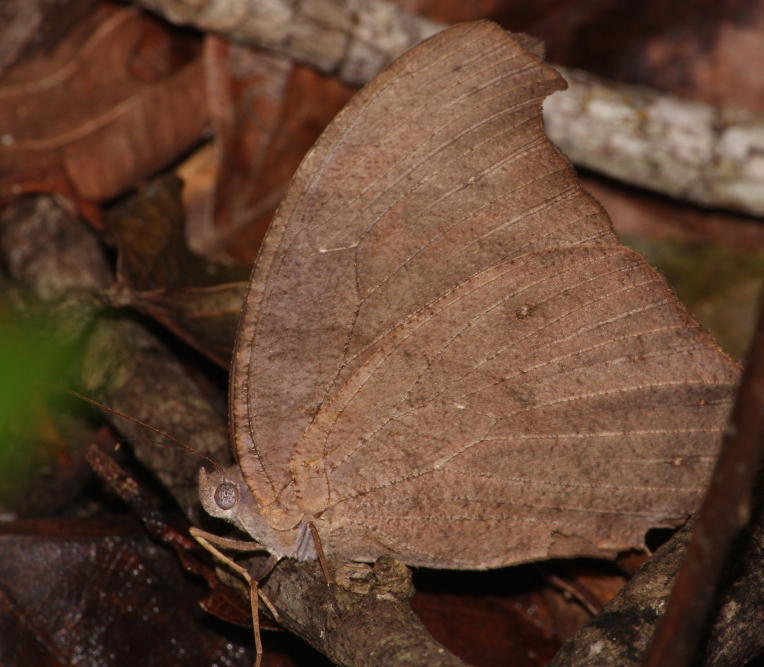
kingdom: Animalia
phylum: Arthropoda
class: Insecta
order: Lepidoptera
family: Nymphalidae
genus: Melanitis
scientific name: Melanitis leda
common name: Twilight brown
